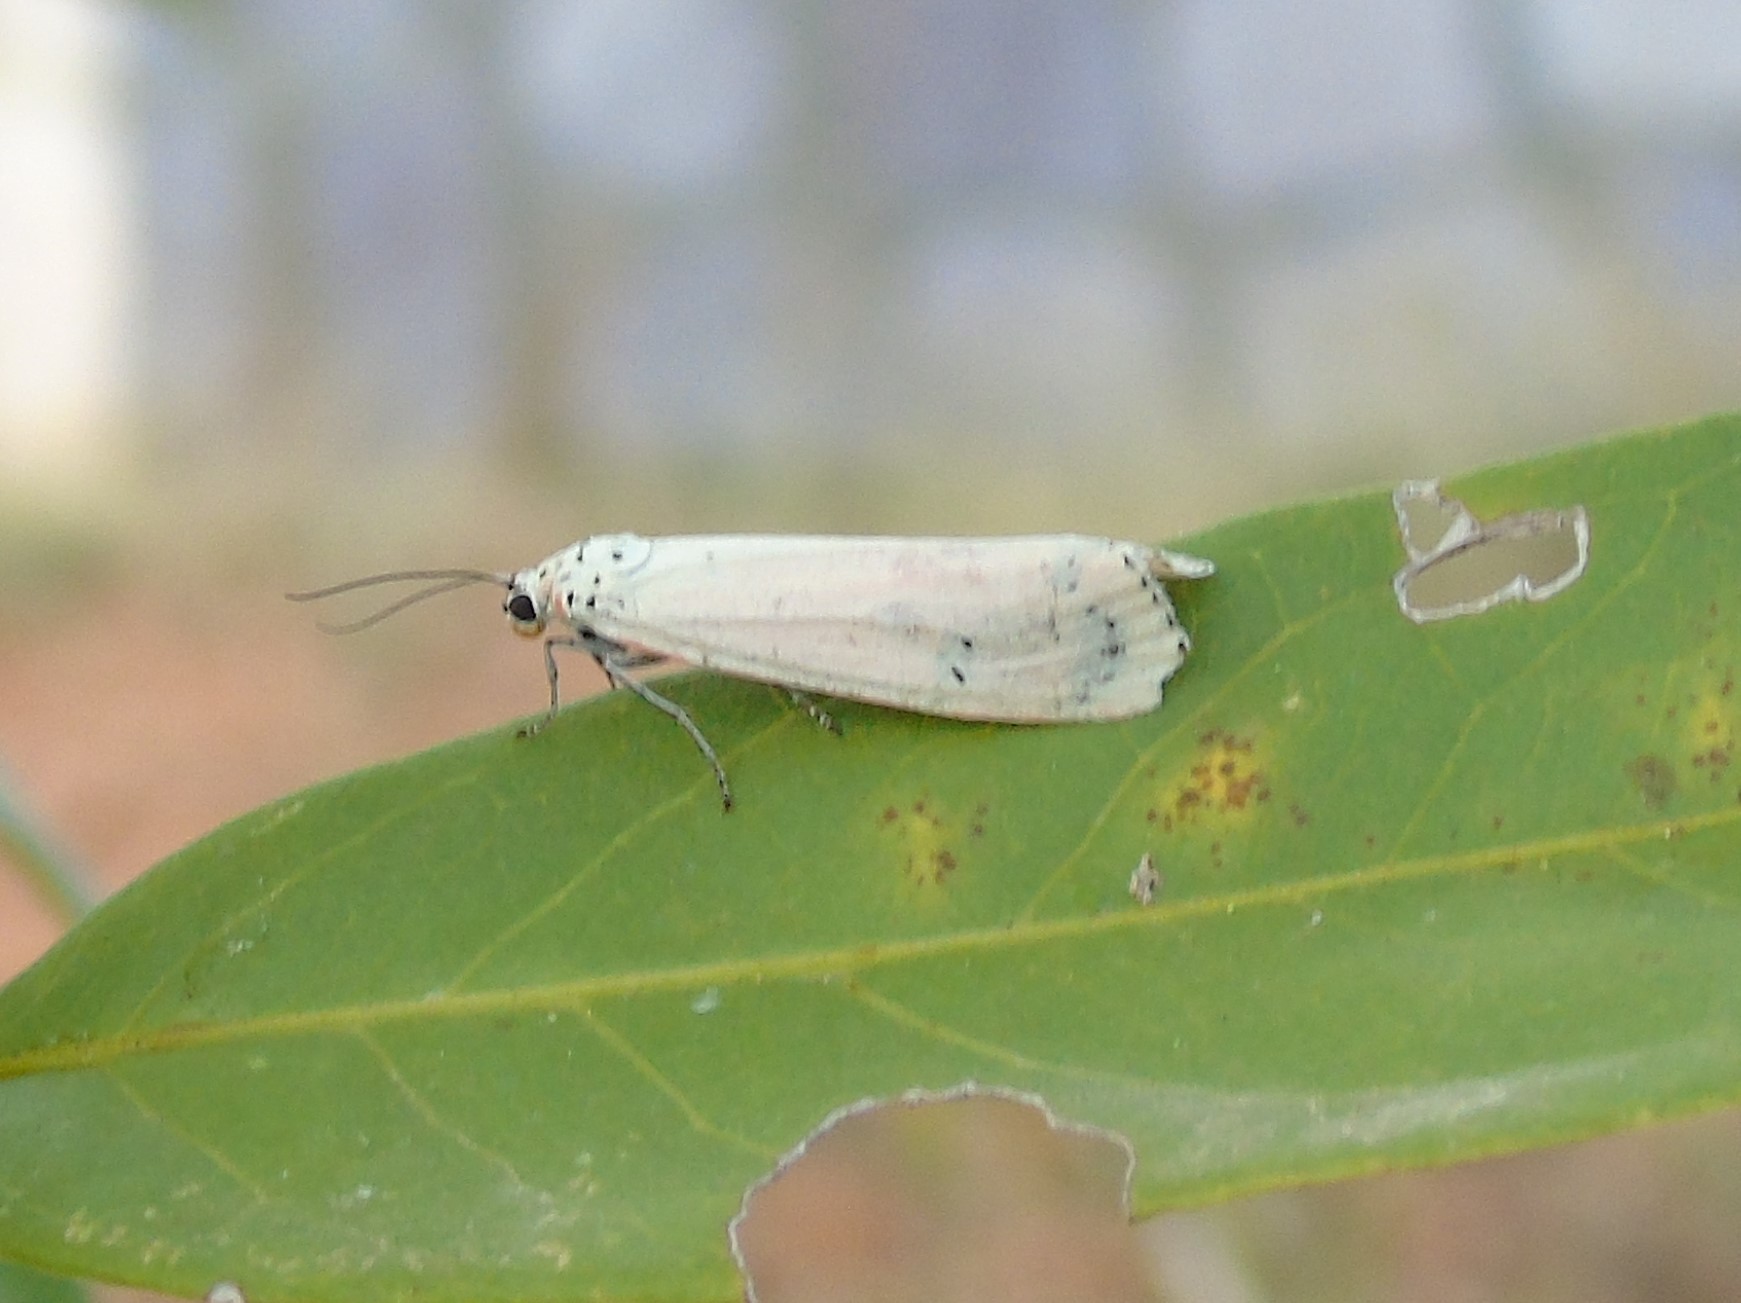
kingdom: Animalia
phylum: Arthropoda
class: Insecta
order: Lepidoptera
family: Erebidae
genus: Utetheisa
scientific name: Utetheisa ornatrix
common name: Beautiful utetheisa
